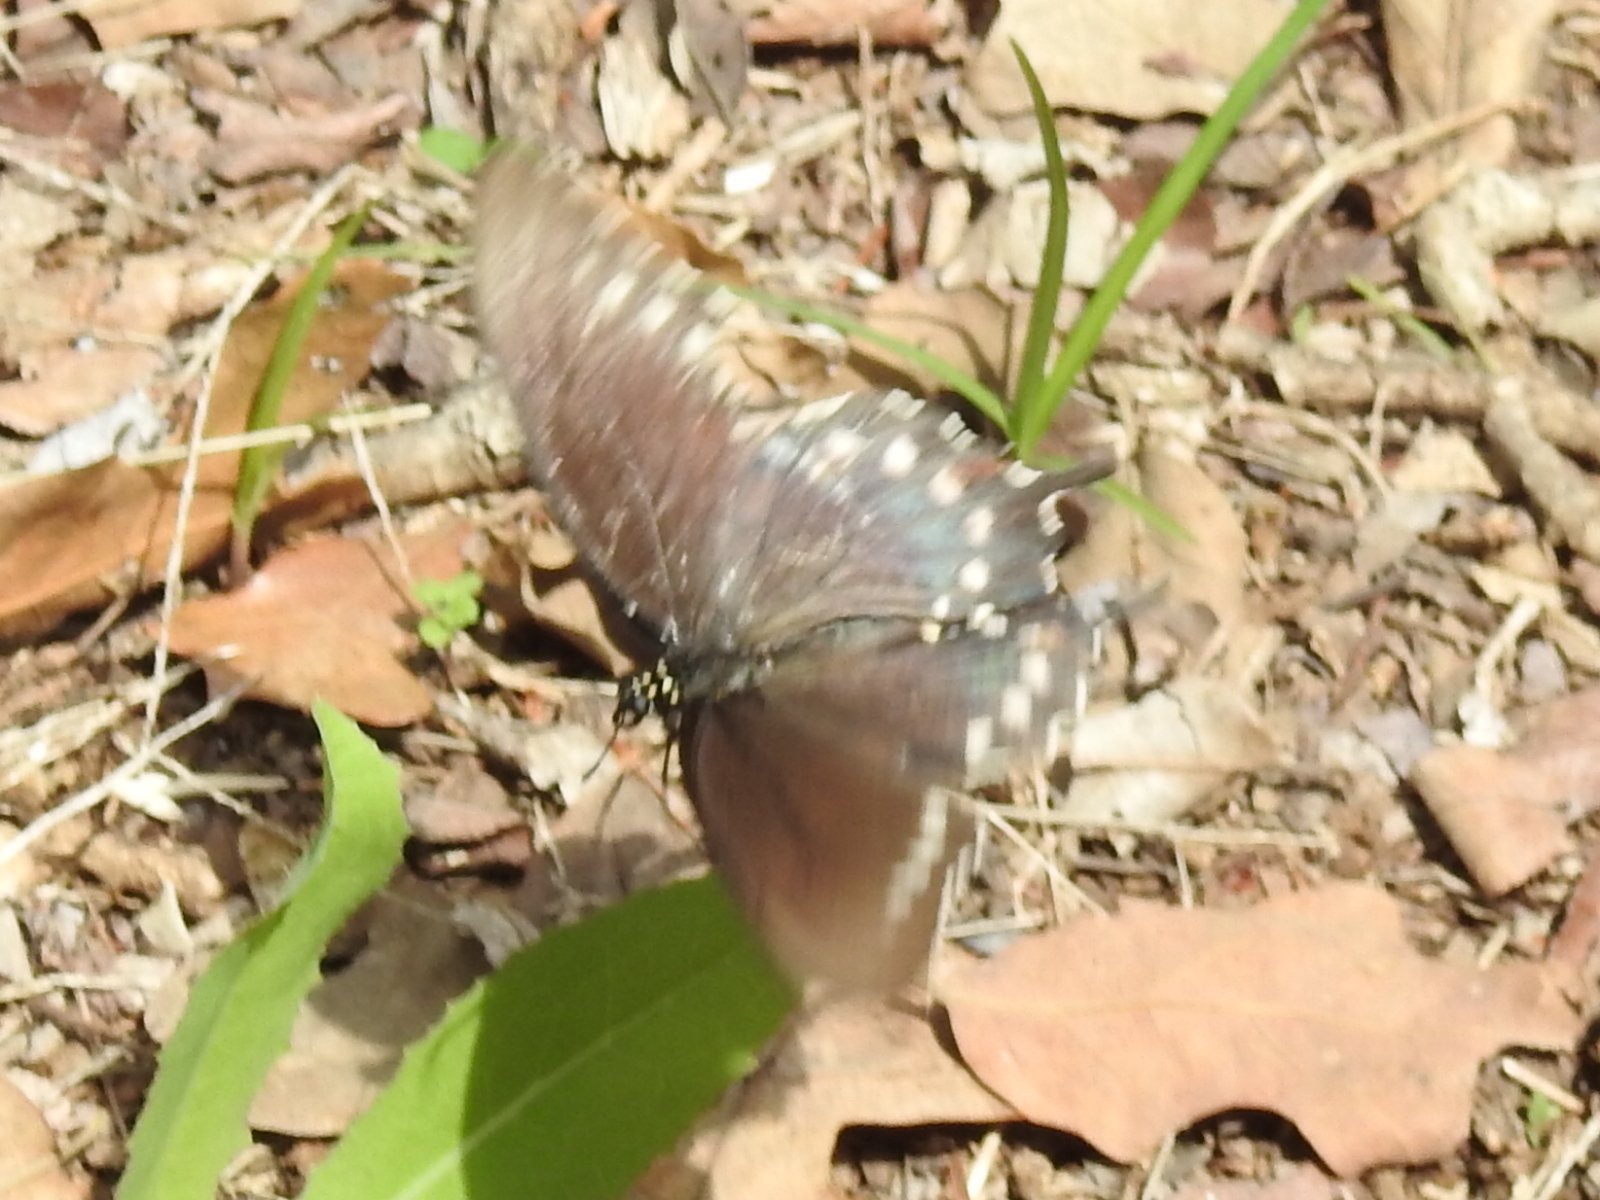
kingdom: Animalia
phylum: Arthropoda
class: Insecta
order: Lepidoptera
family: Papilionidae
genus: Battus
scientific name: Battus philenor
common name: Pipevine swallowtail
